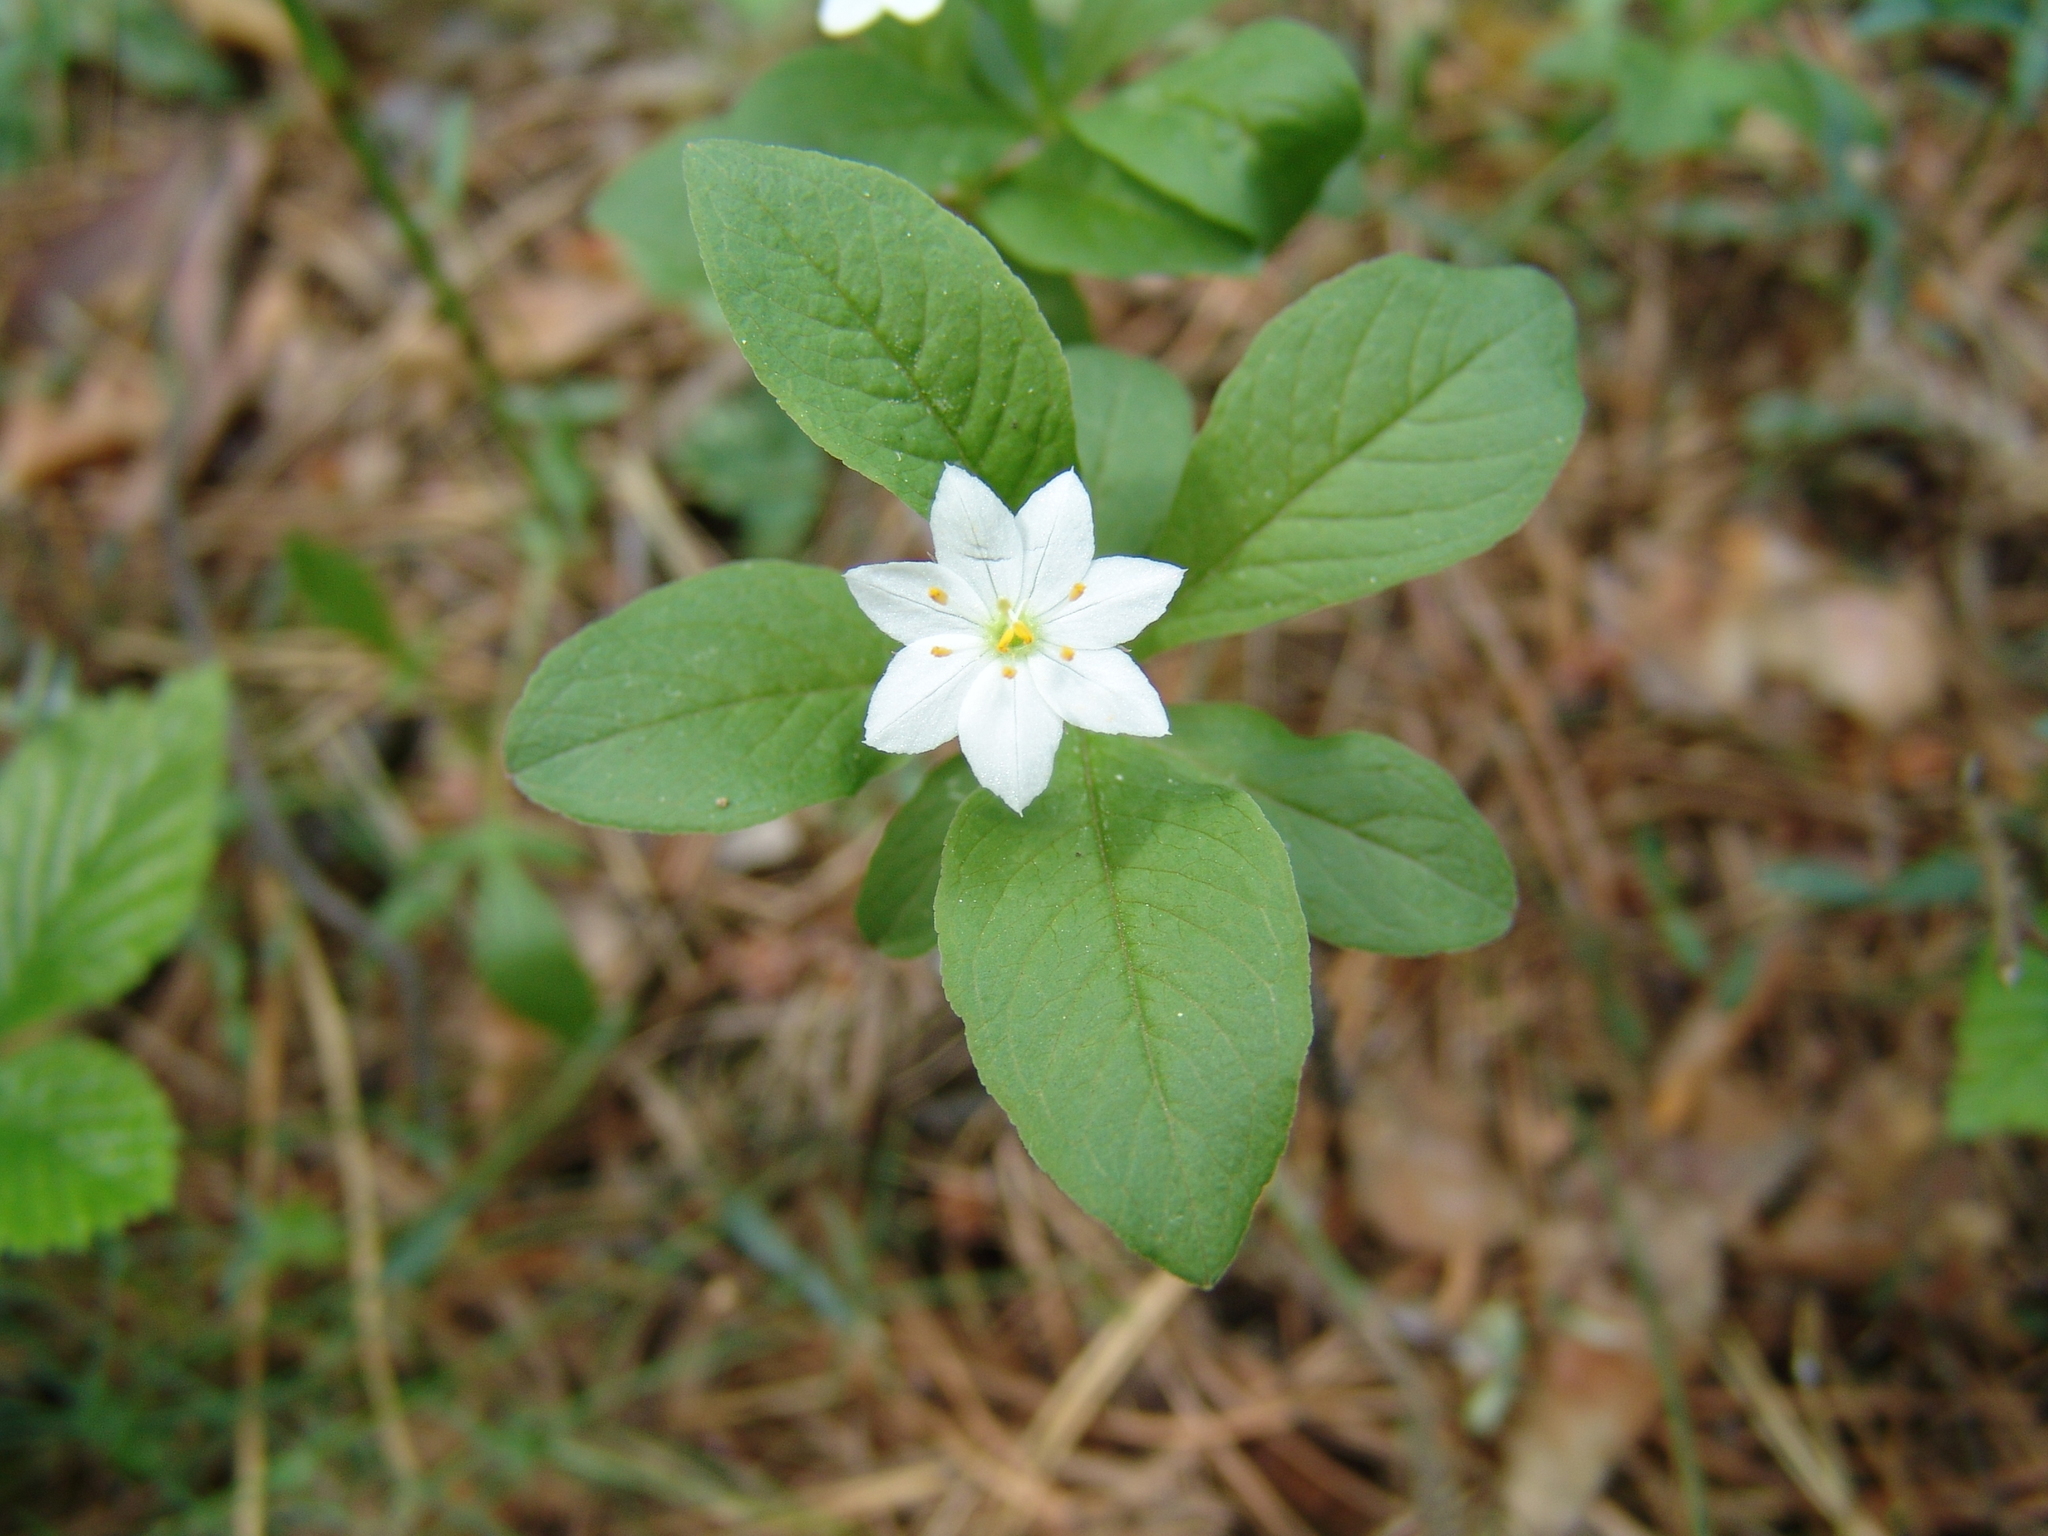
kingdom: Plantae
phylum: Tracheophyta
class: Magnoliopsida
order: Ericales
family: Primulaceae
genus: Lysimachia
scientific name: Lysimachia europaea
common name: Arctic starflower
